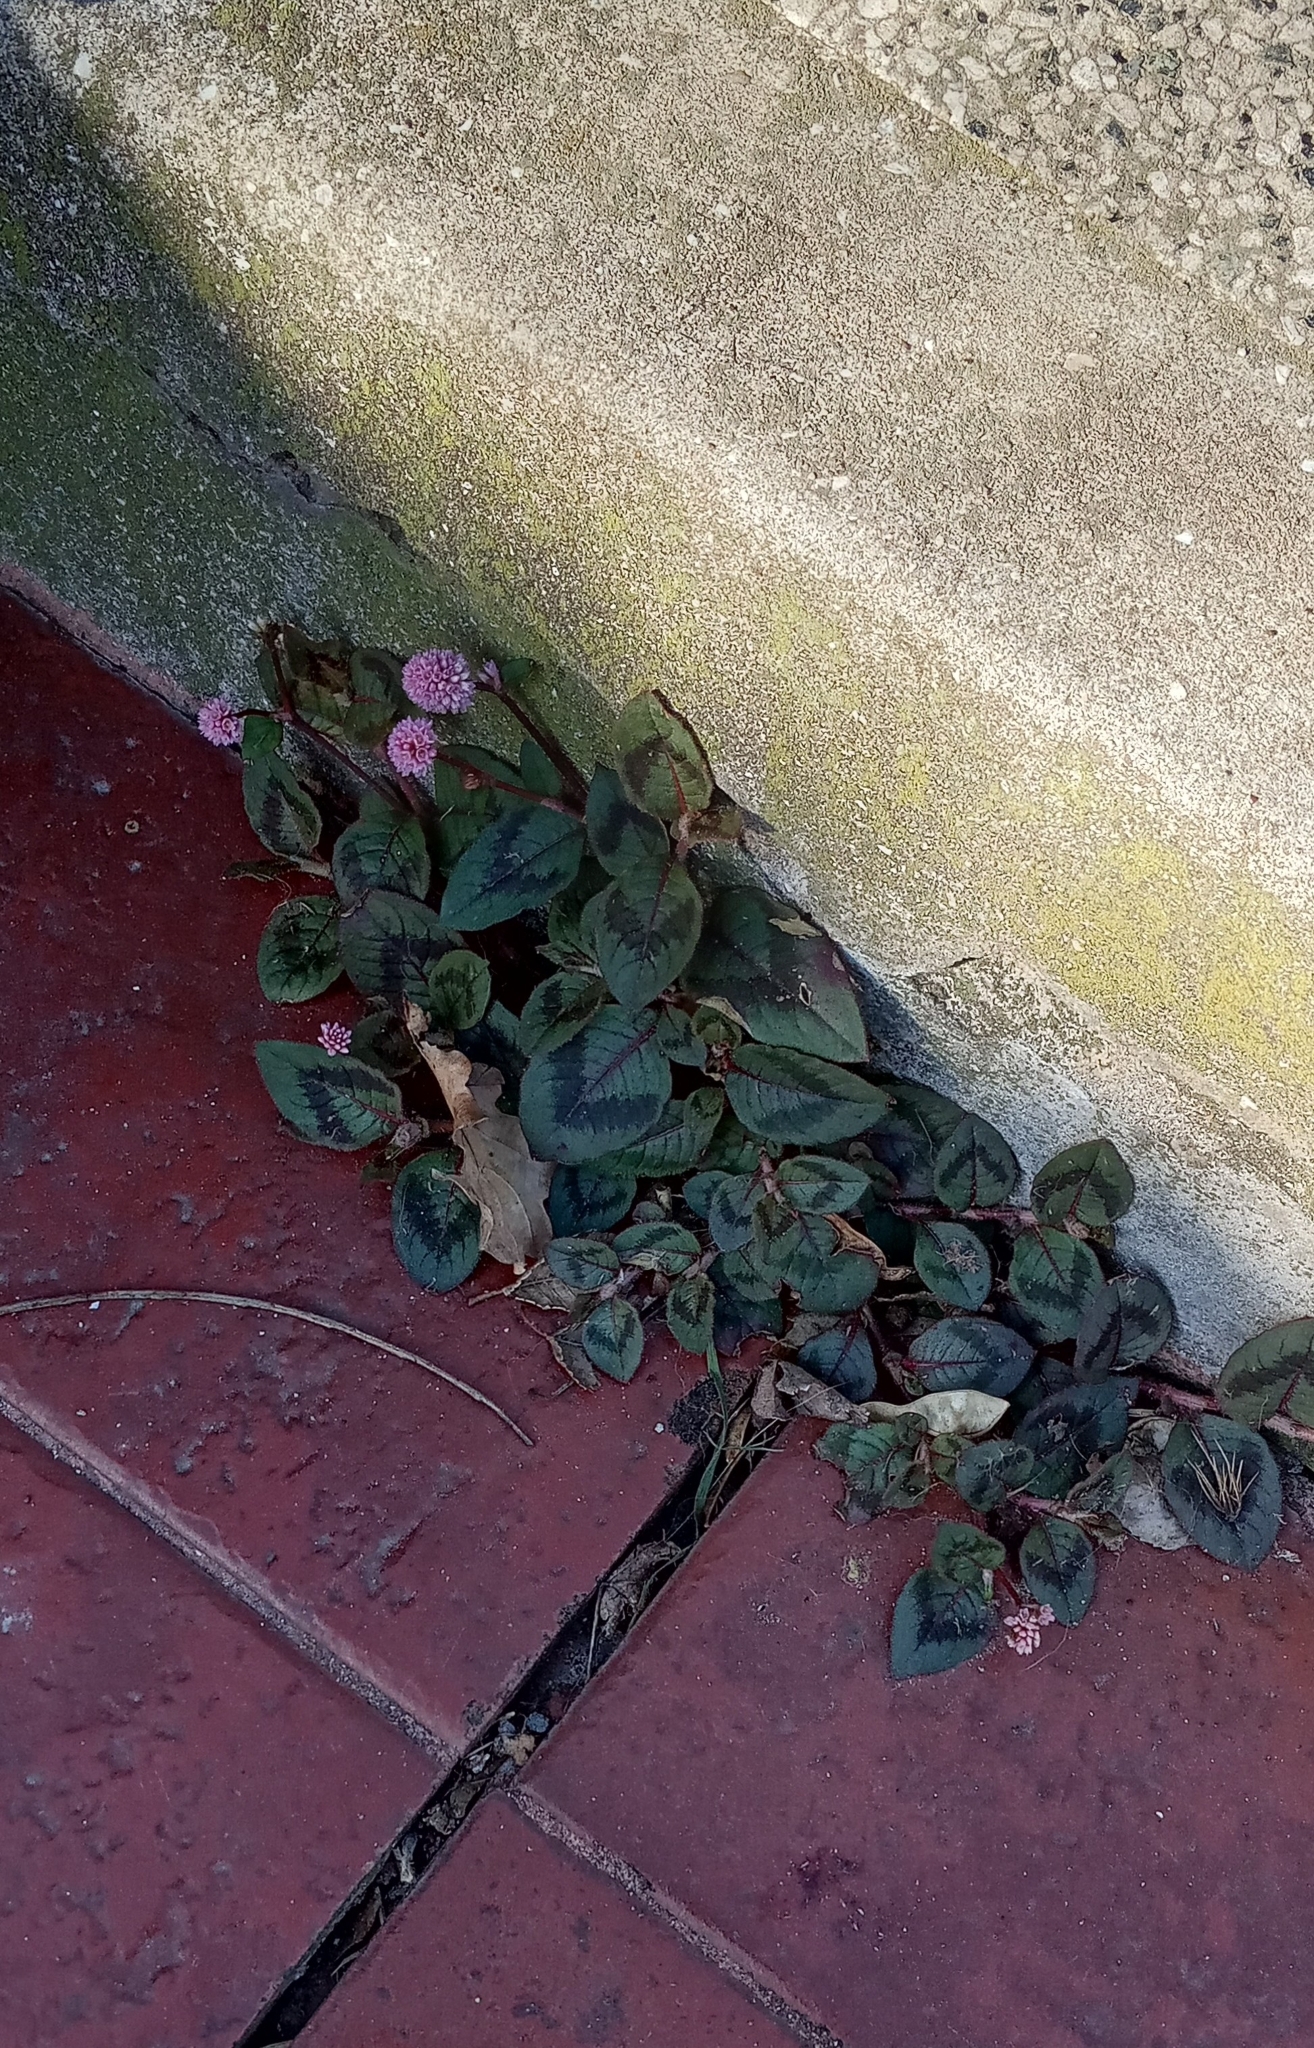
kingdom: Plantae
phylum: Tracheophyta
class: Magnoliopsida
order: Caryophyllales
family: Polygonaceae
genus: Persicaria
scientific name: Persicaria capitata
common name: Pinkhead smartweed
